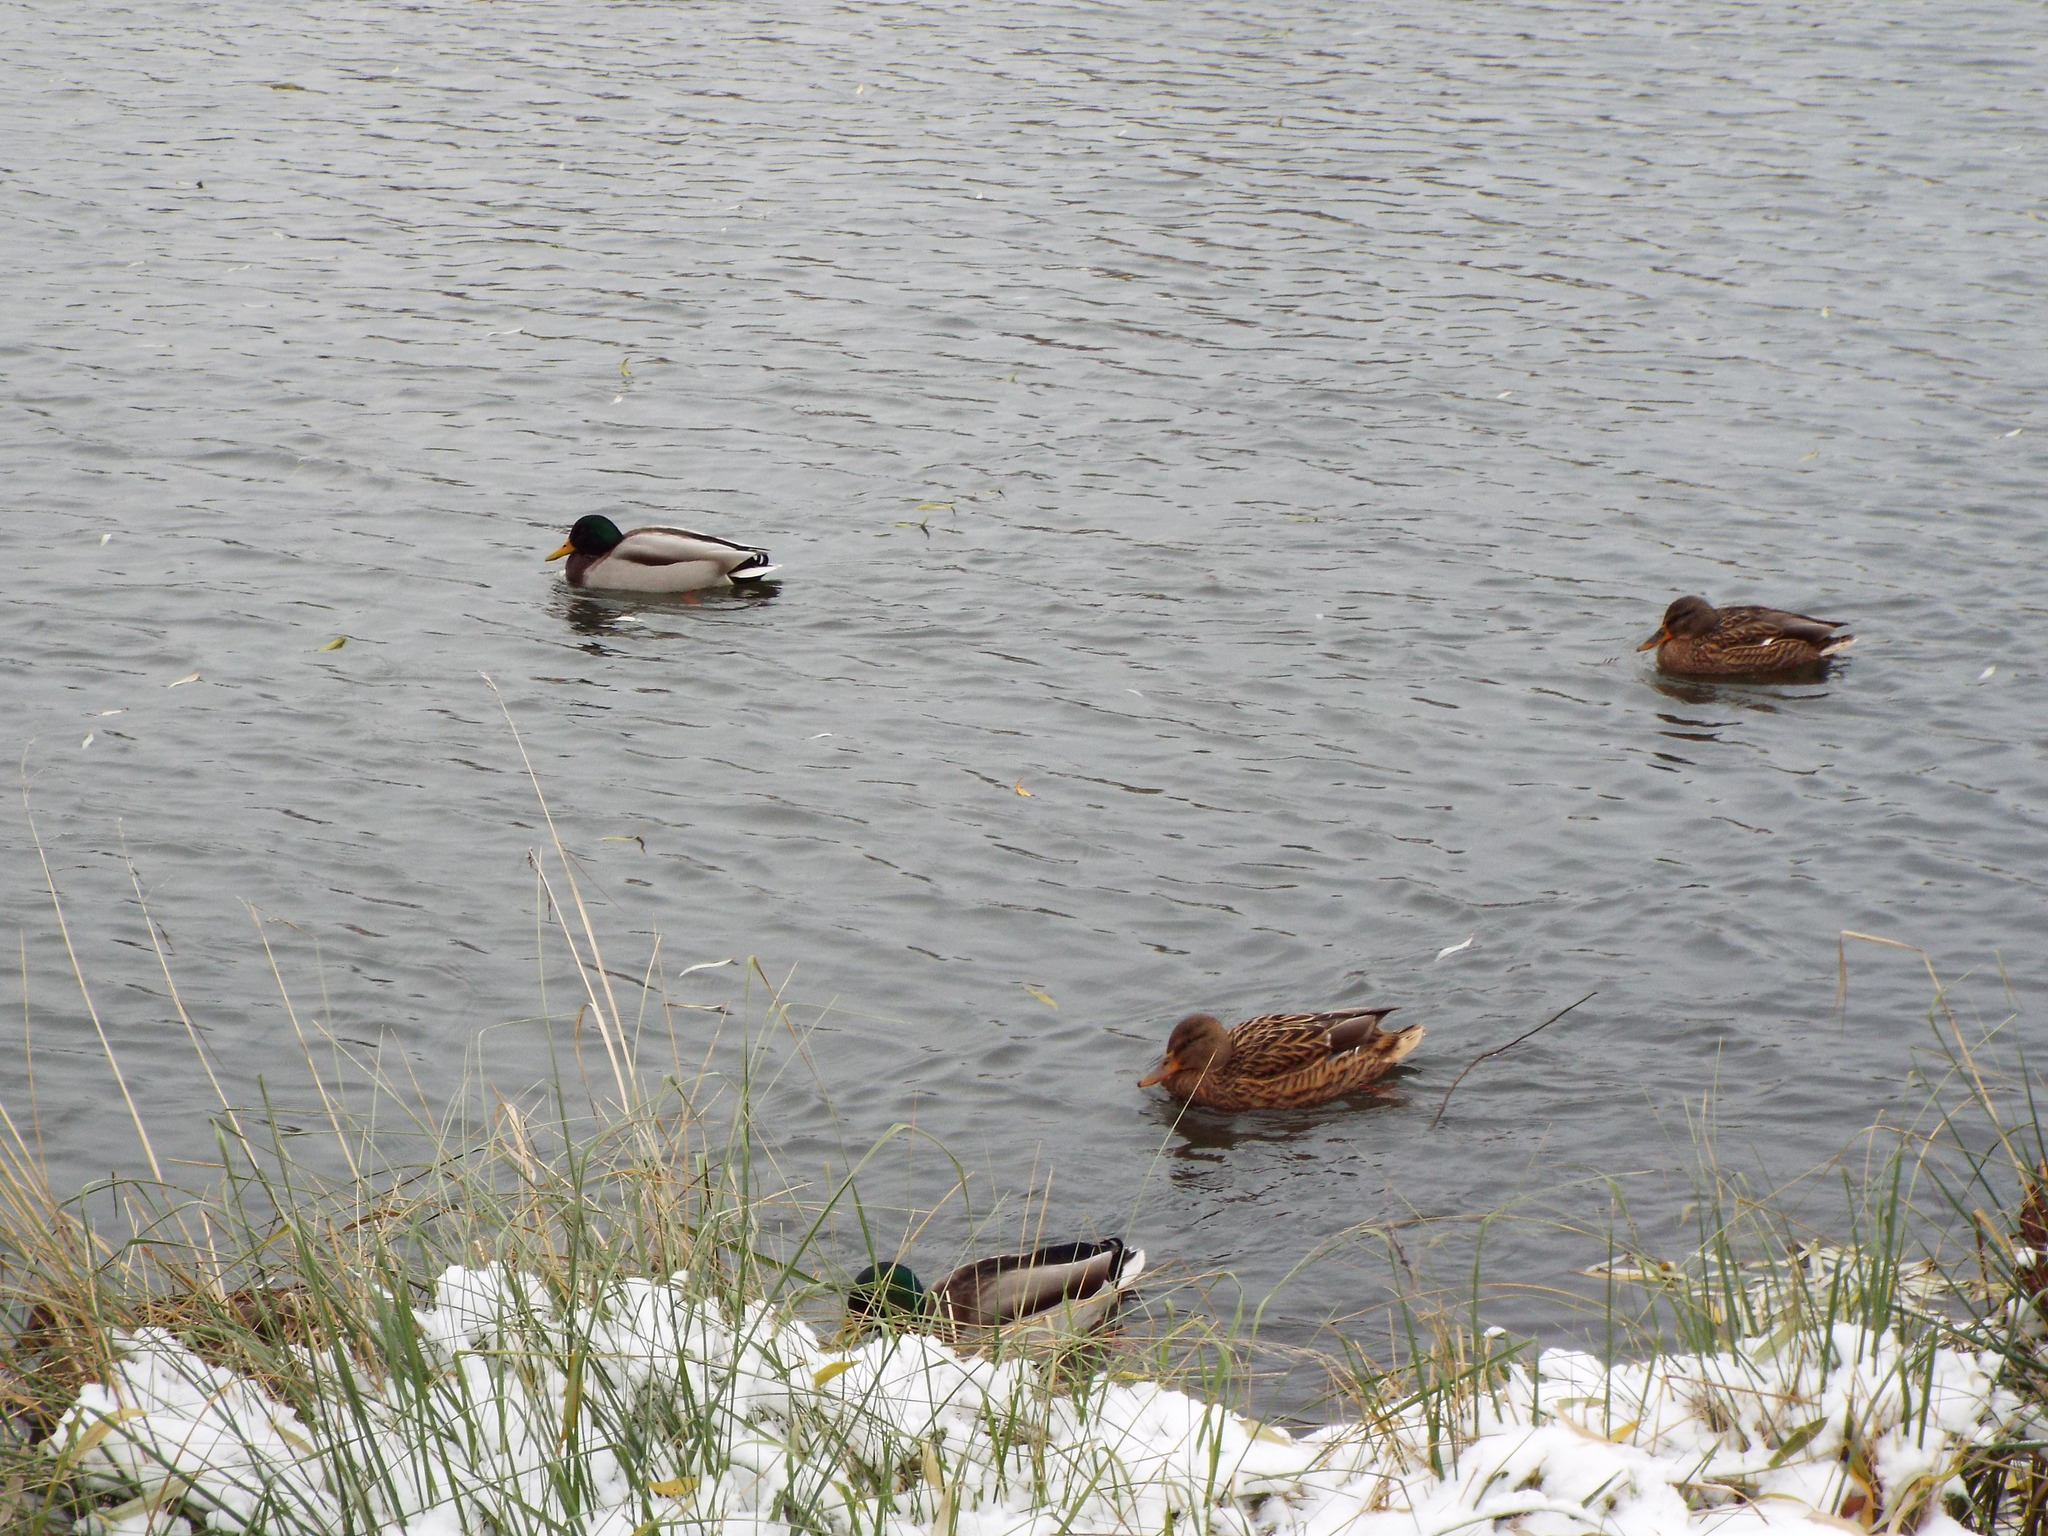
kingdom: Animalia
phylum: Chordata
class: Aves
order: Anseriformes
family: Anatidae
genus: Anas
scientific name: Anas platyrhynchos
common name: Mallard
